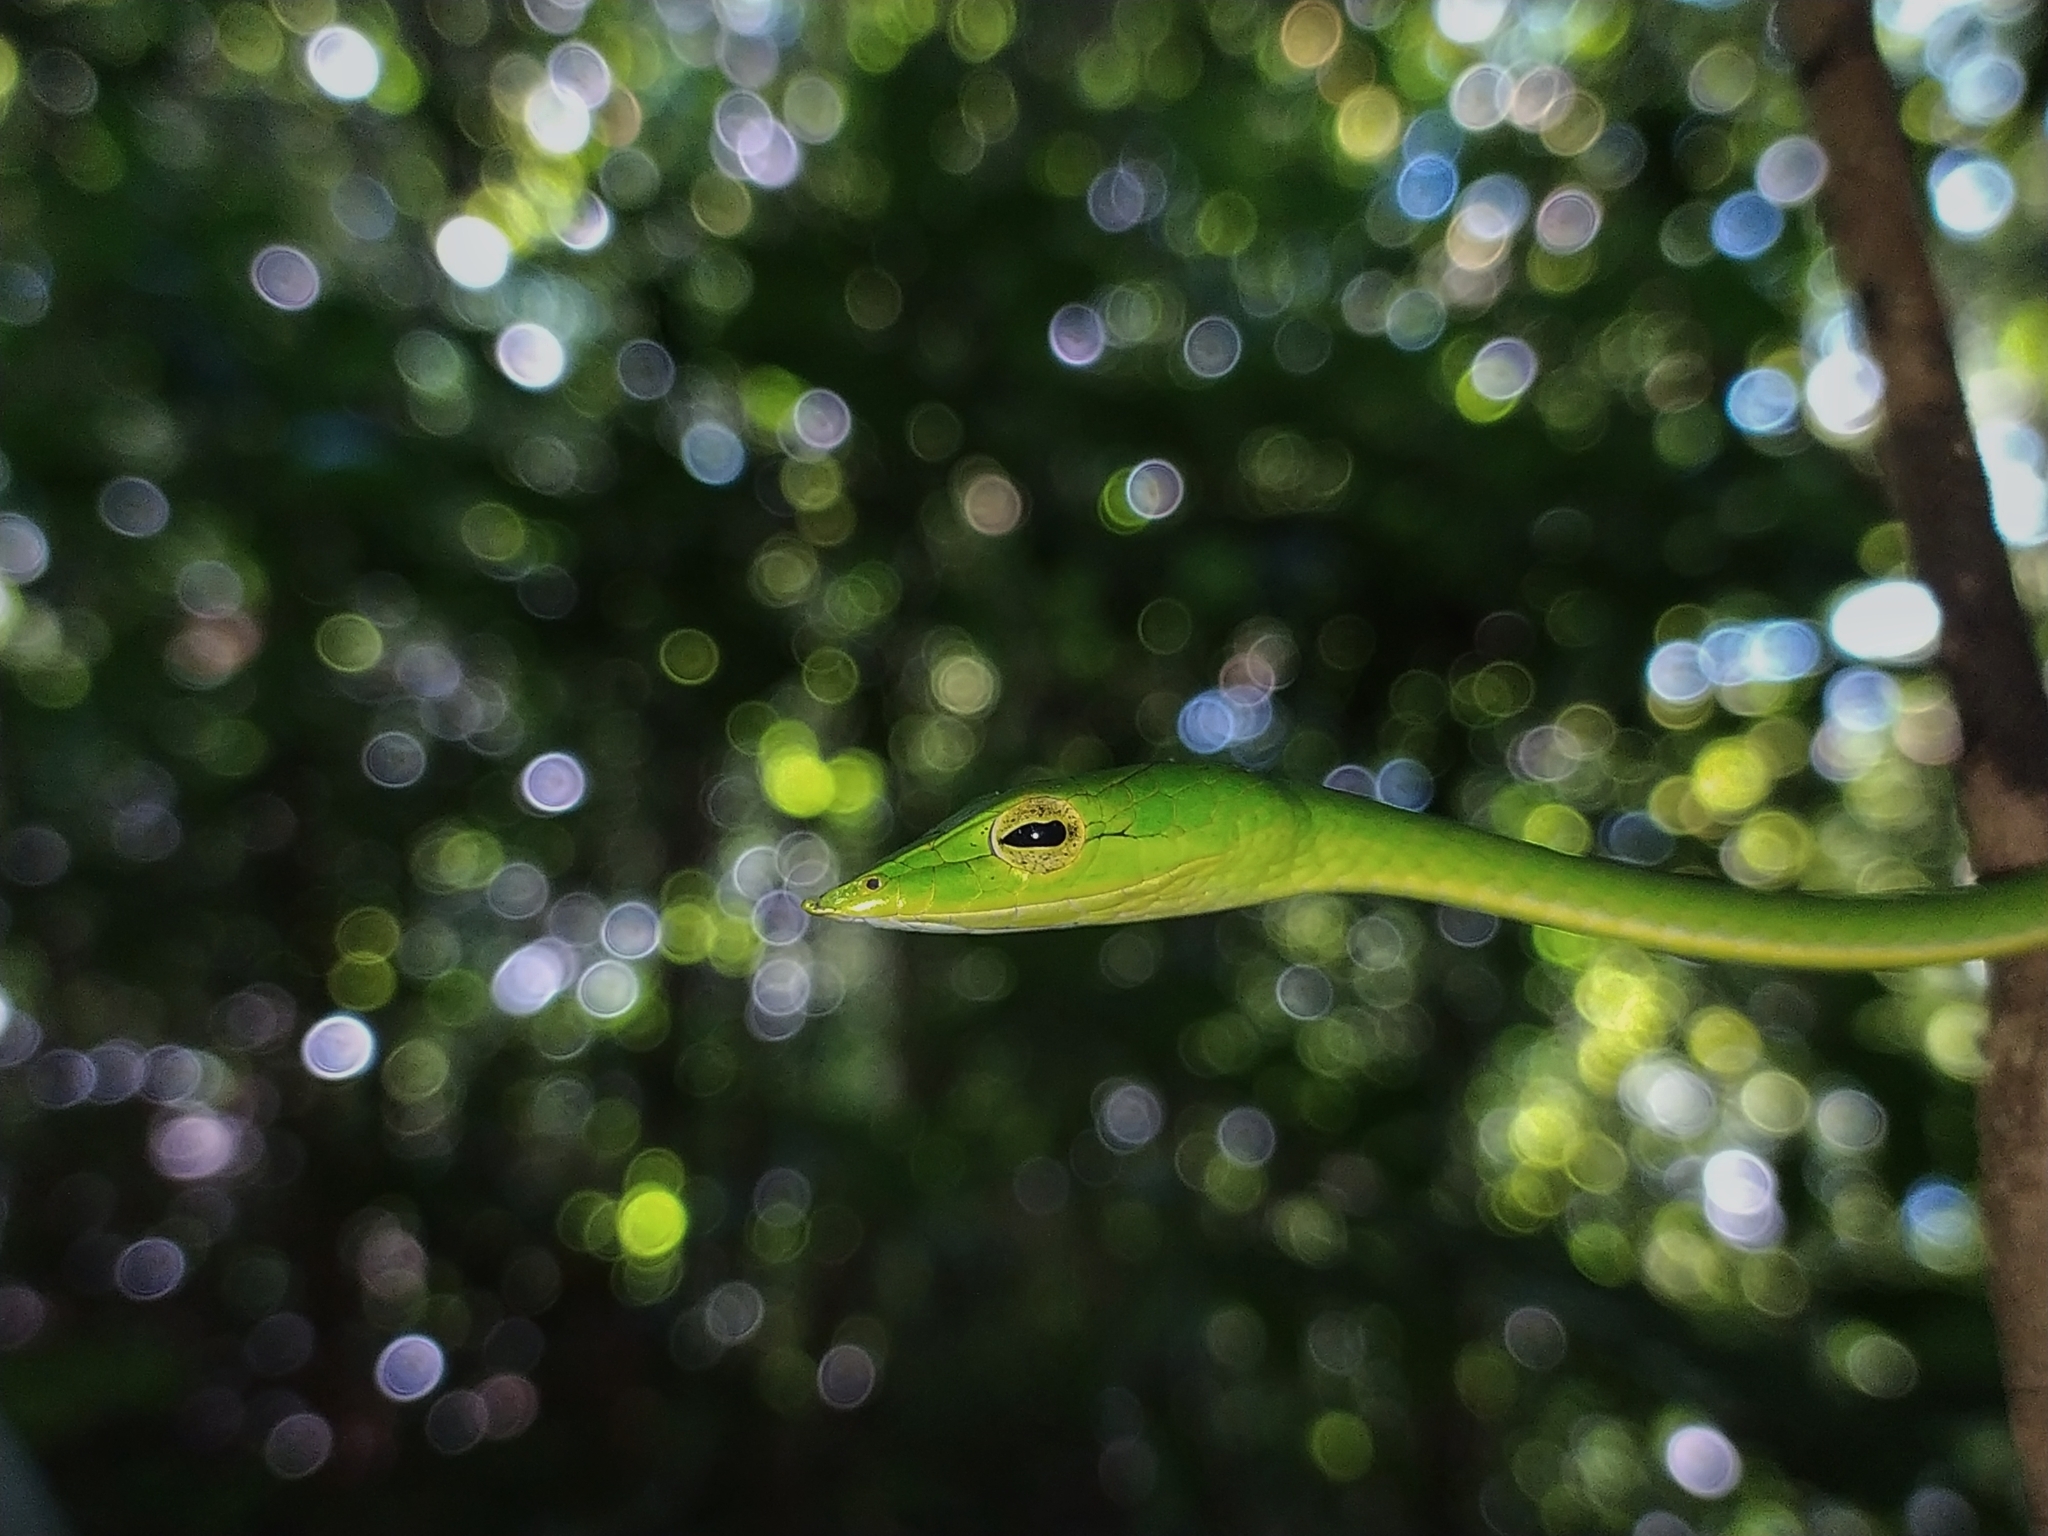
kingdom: Animalia
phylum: Chordata
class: Squamata
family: Colubridae
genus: Ahaetulla
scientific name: Ahaetulla farnsworthi
